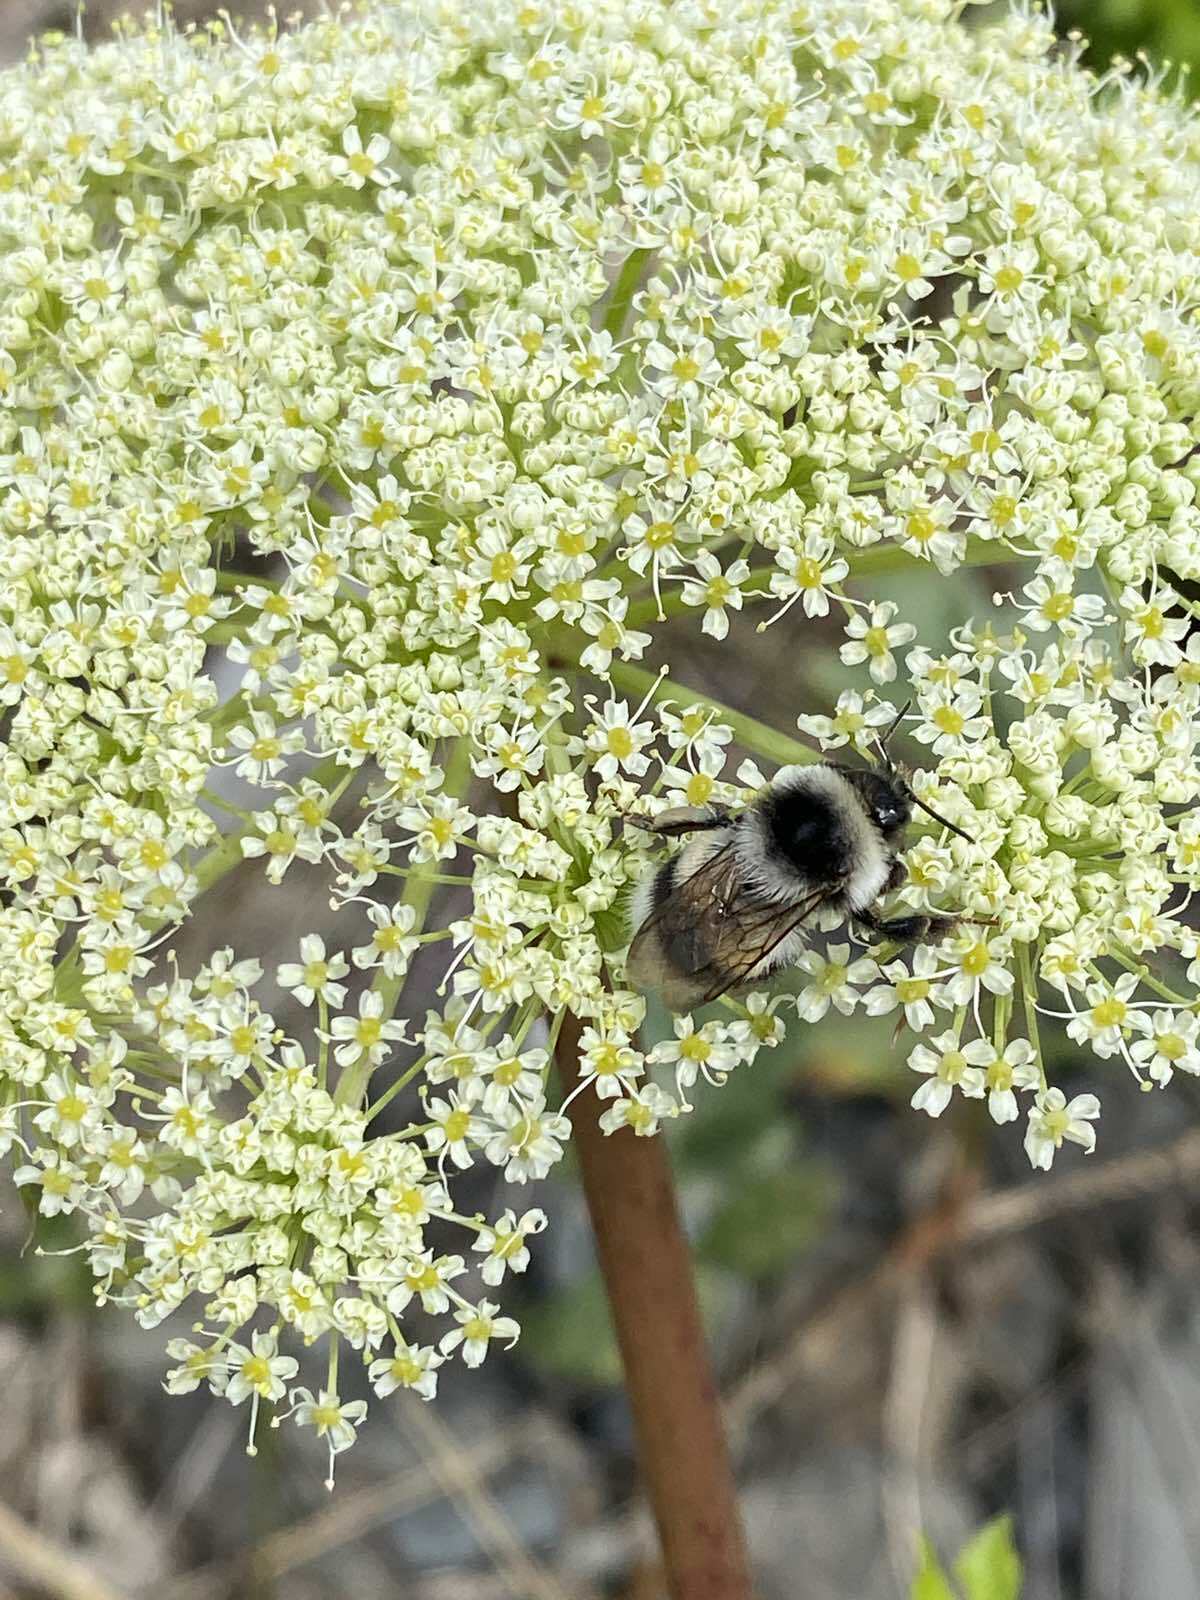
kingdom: Animalia
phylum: Arthropoda
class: Insecta
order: Hymenoptera
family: Apidae
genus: Bombus
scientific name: Bombus patagiatus
